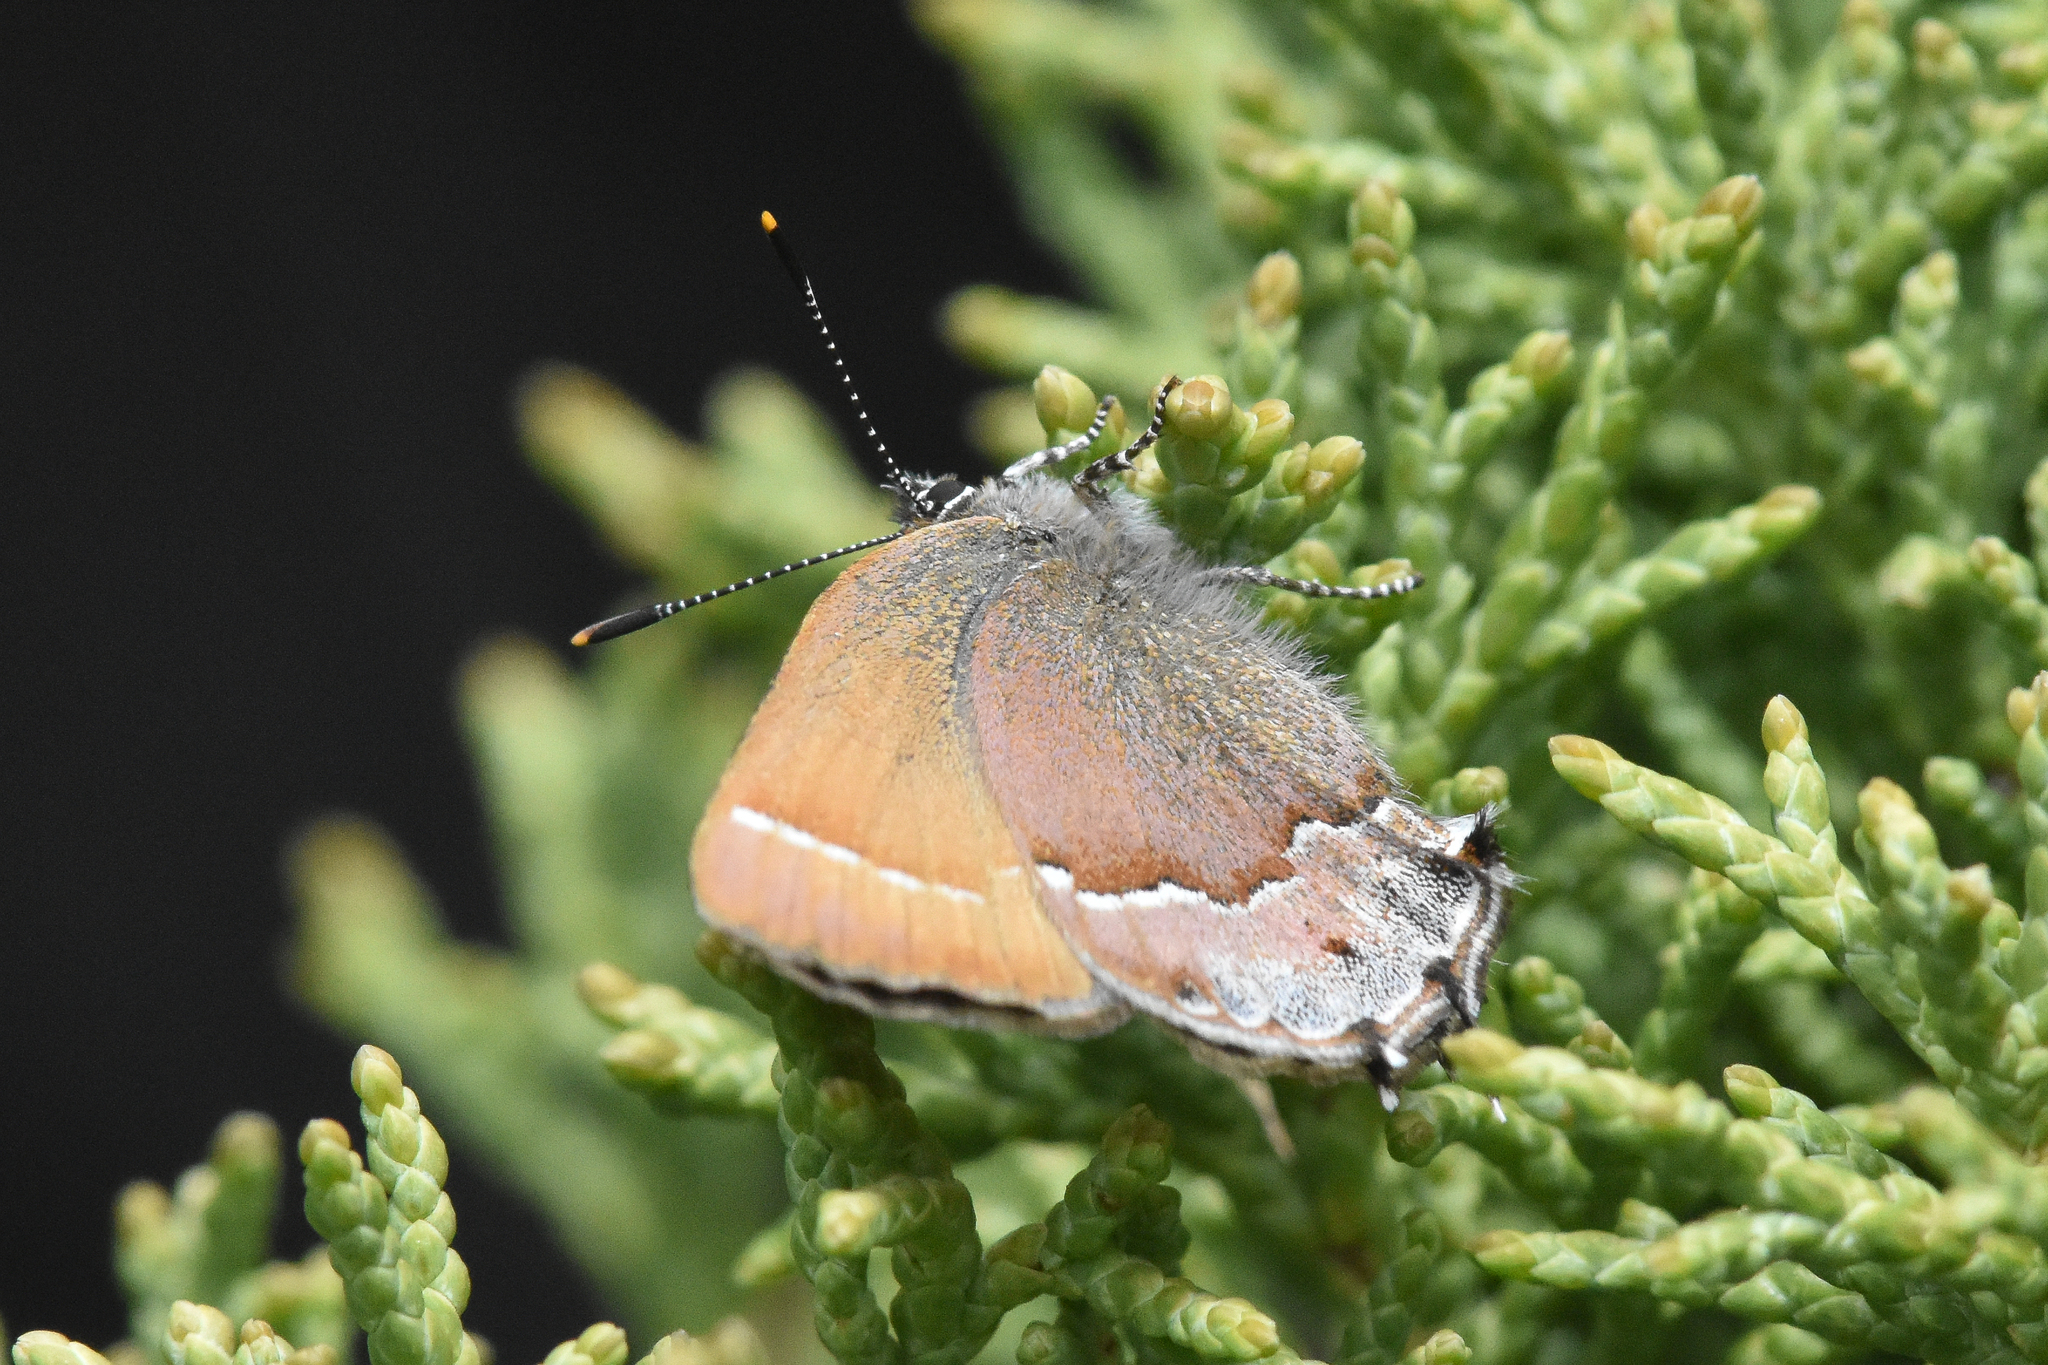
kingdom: Animalia
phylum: Arthropoda
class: Insecta
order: Lepidoptera
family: Lycaenidae
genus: Mitoura
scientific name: Mitoura gryneus
